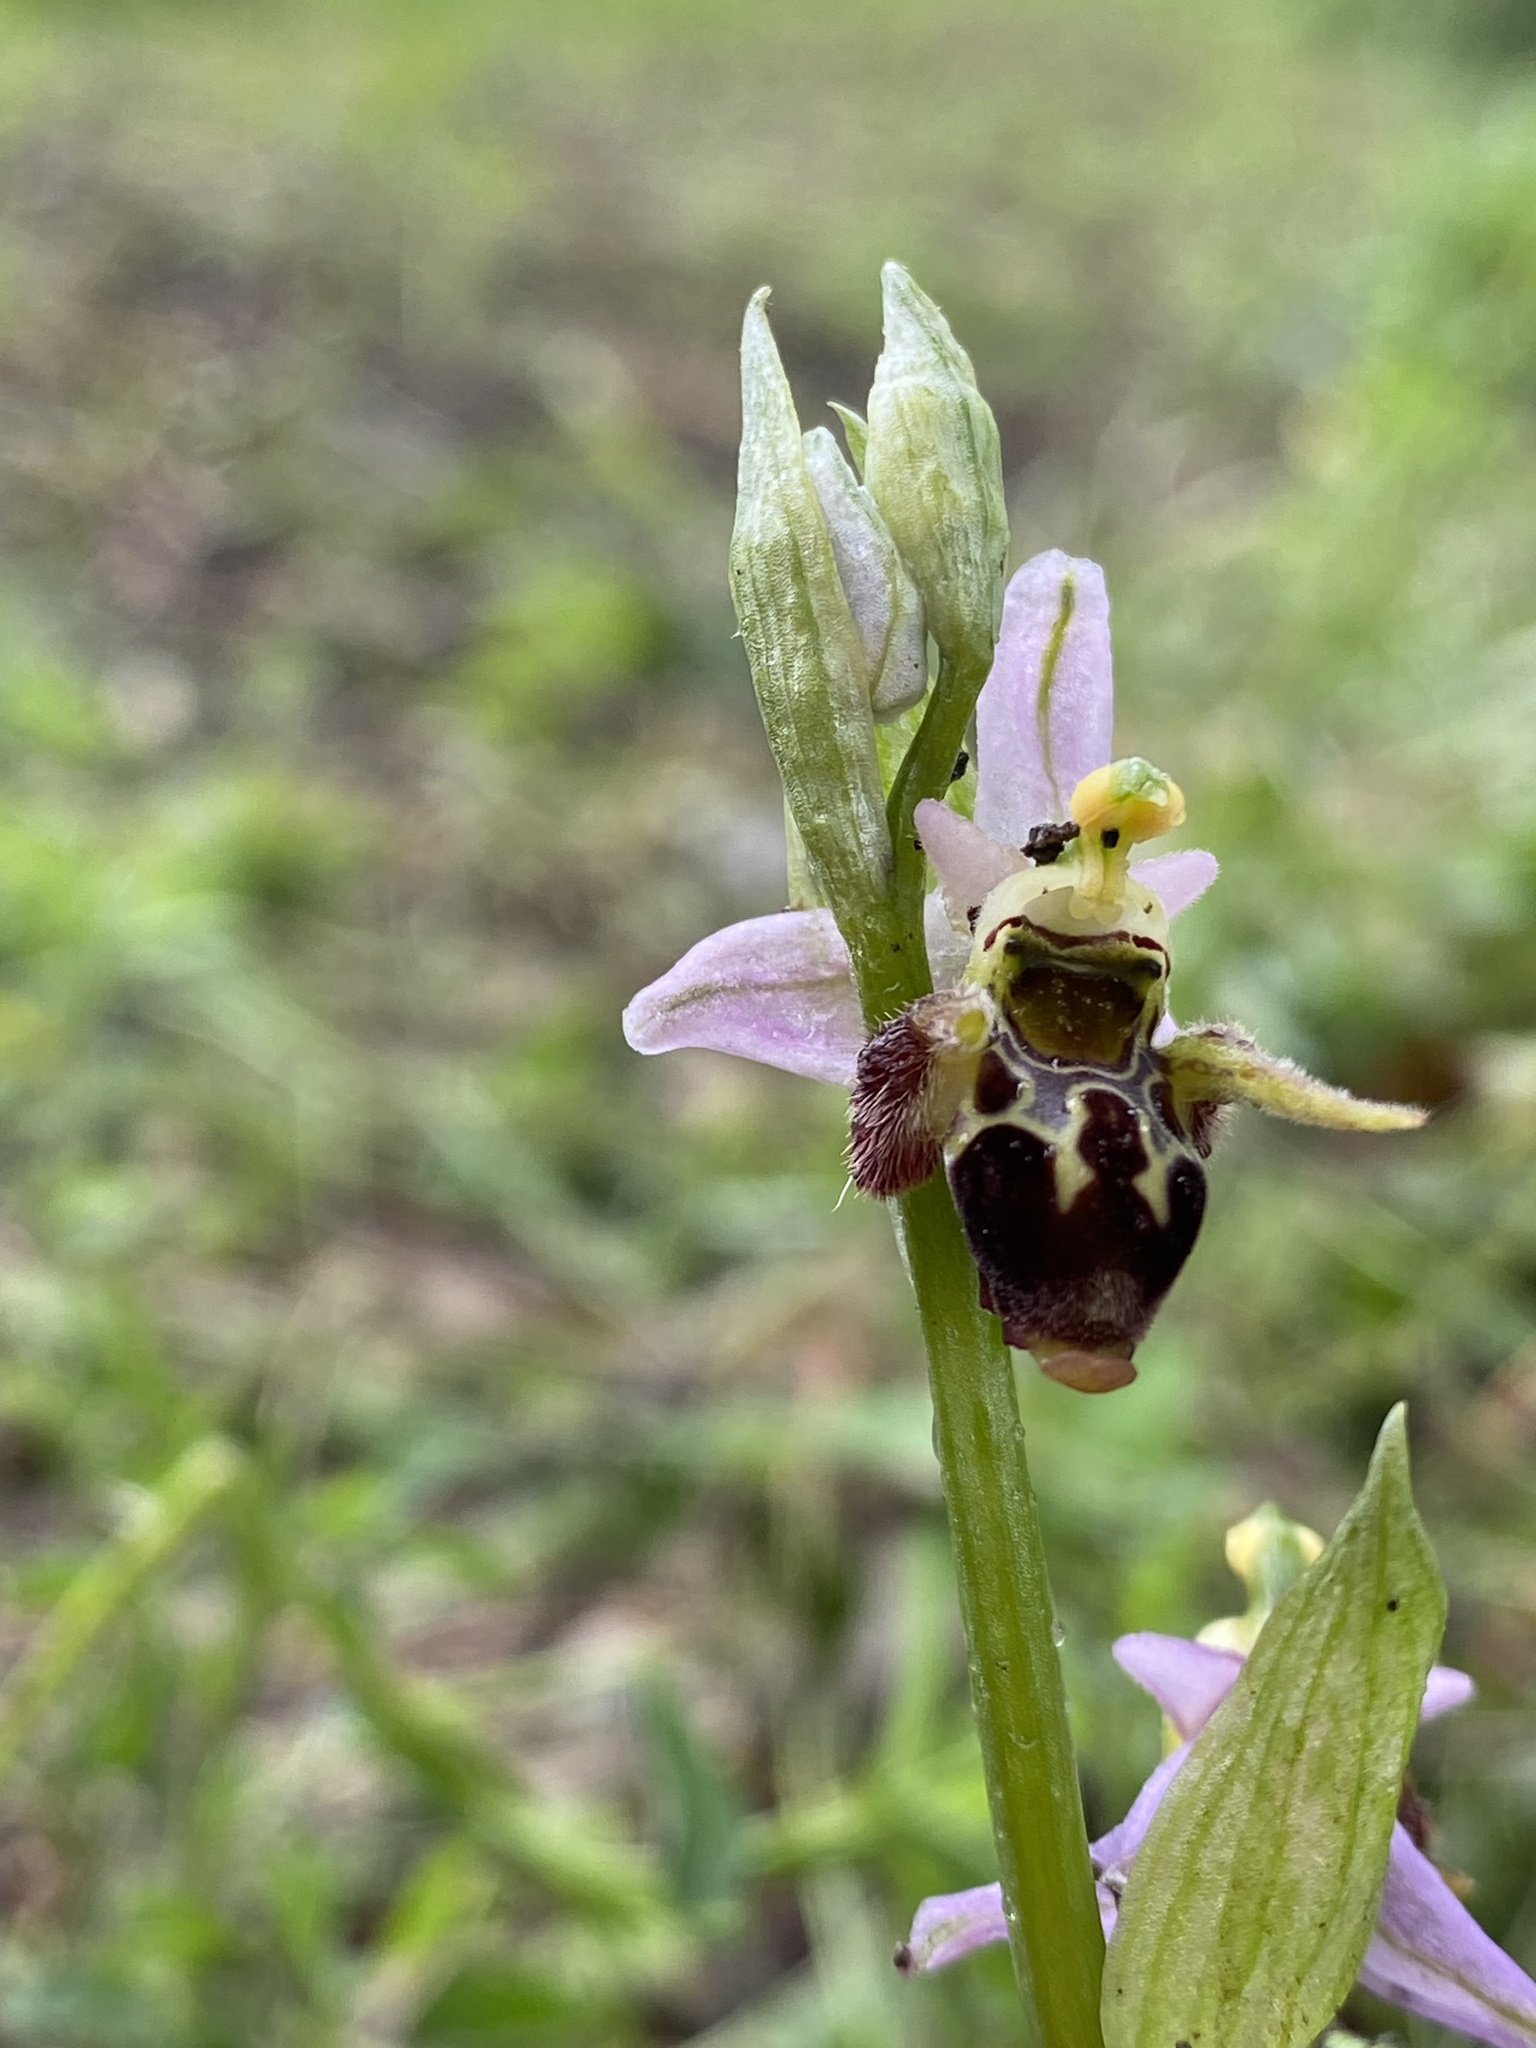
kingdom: Plantae
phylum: Tracheophyta
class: Liliopsida
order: Asparagales
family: Orchidaceae
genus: Ophrys
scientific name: Ophrys
